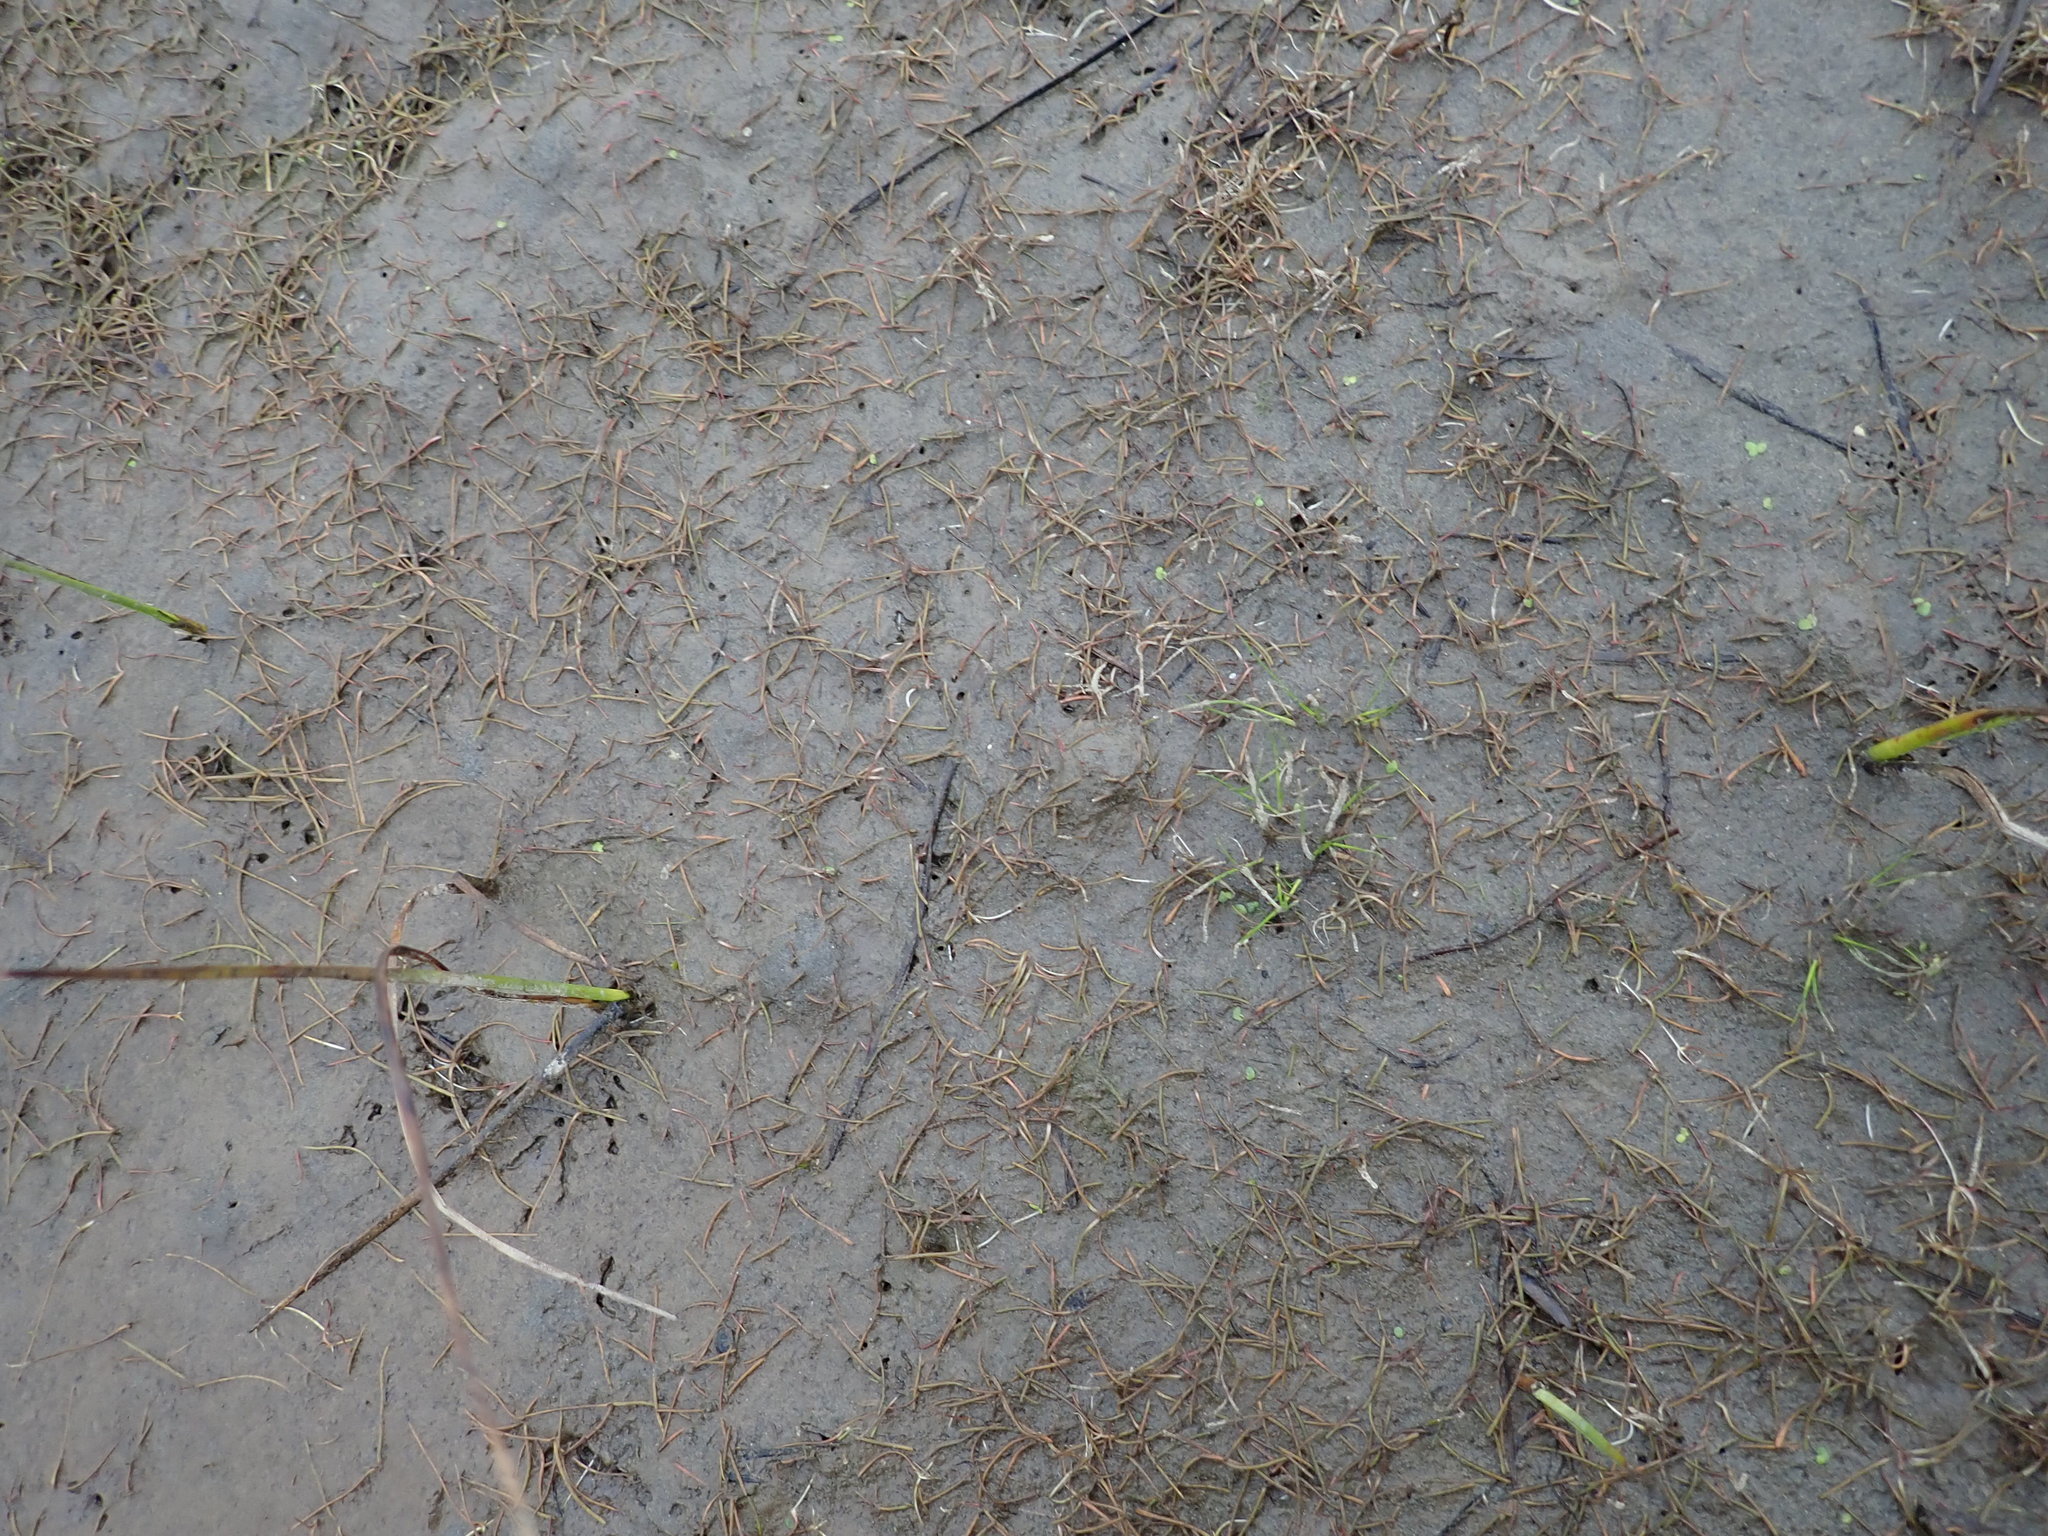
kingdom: Plantae
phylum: Tracheophyta
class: Magnoliopsida
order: Lamiales
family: Scrophulariaceae
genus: Limosella
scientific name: Limosella australis
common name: Welsh mudwort
